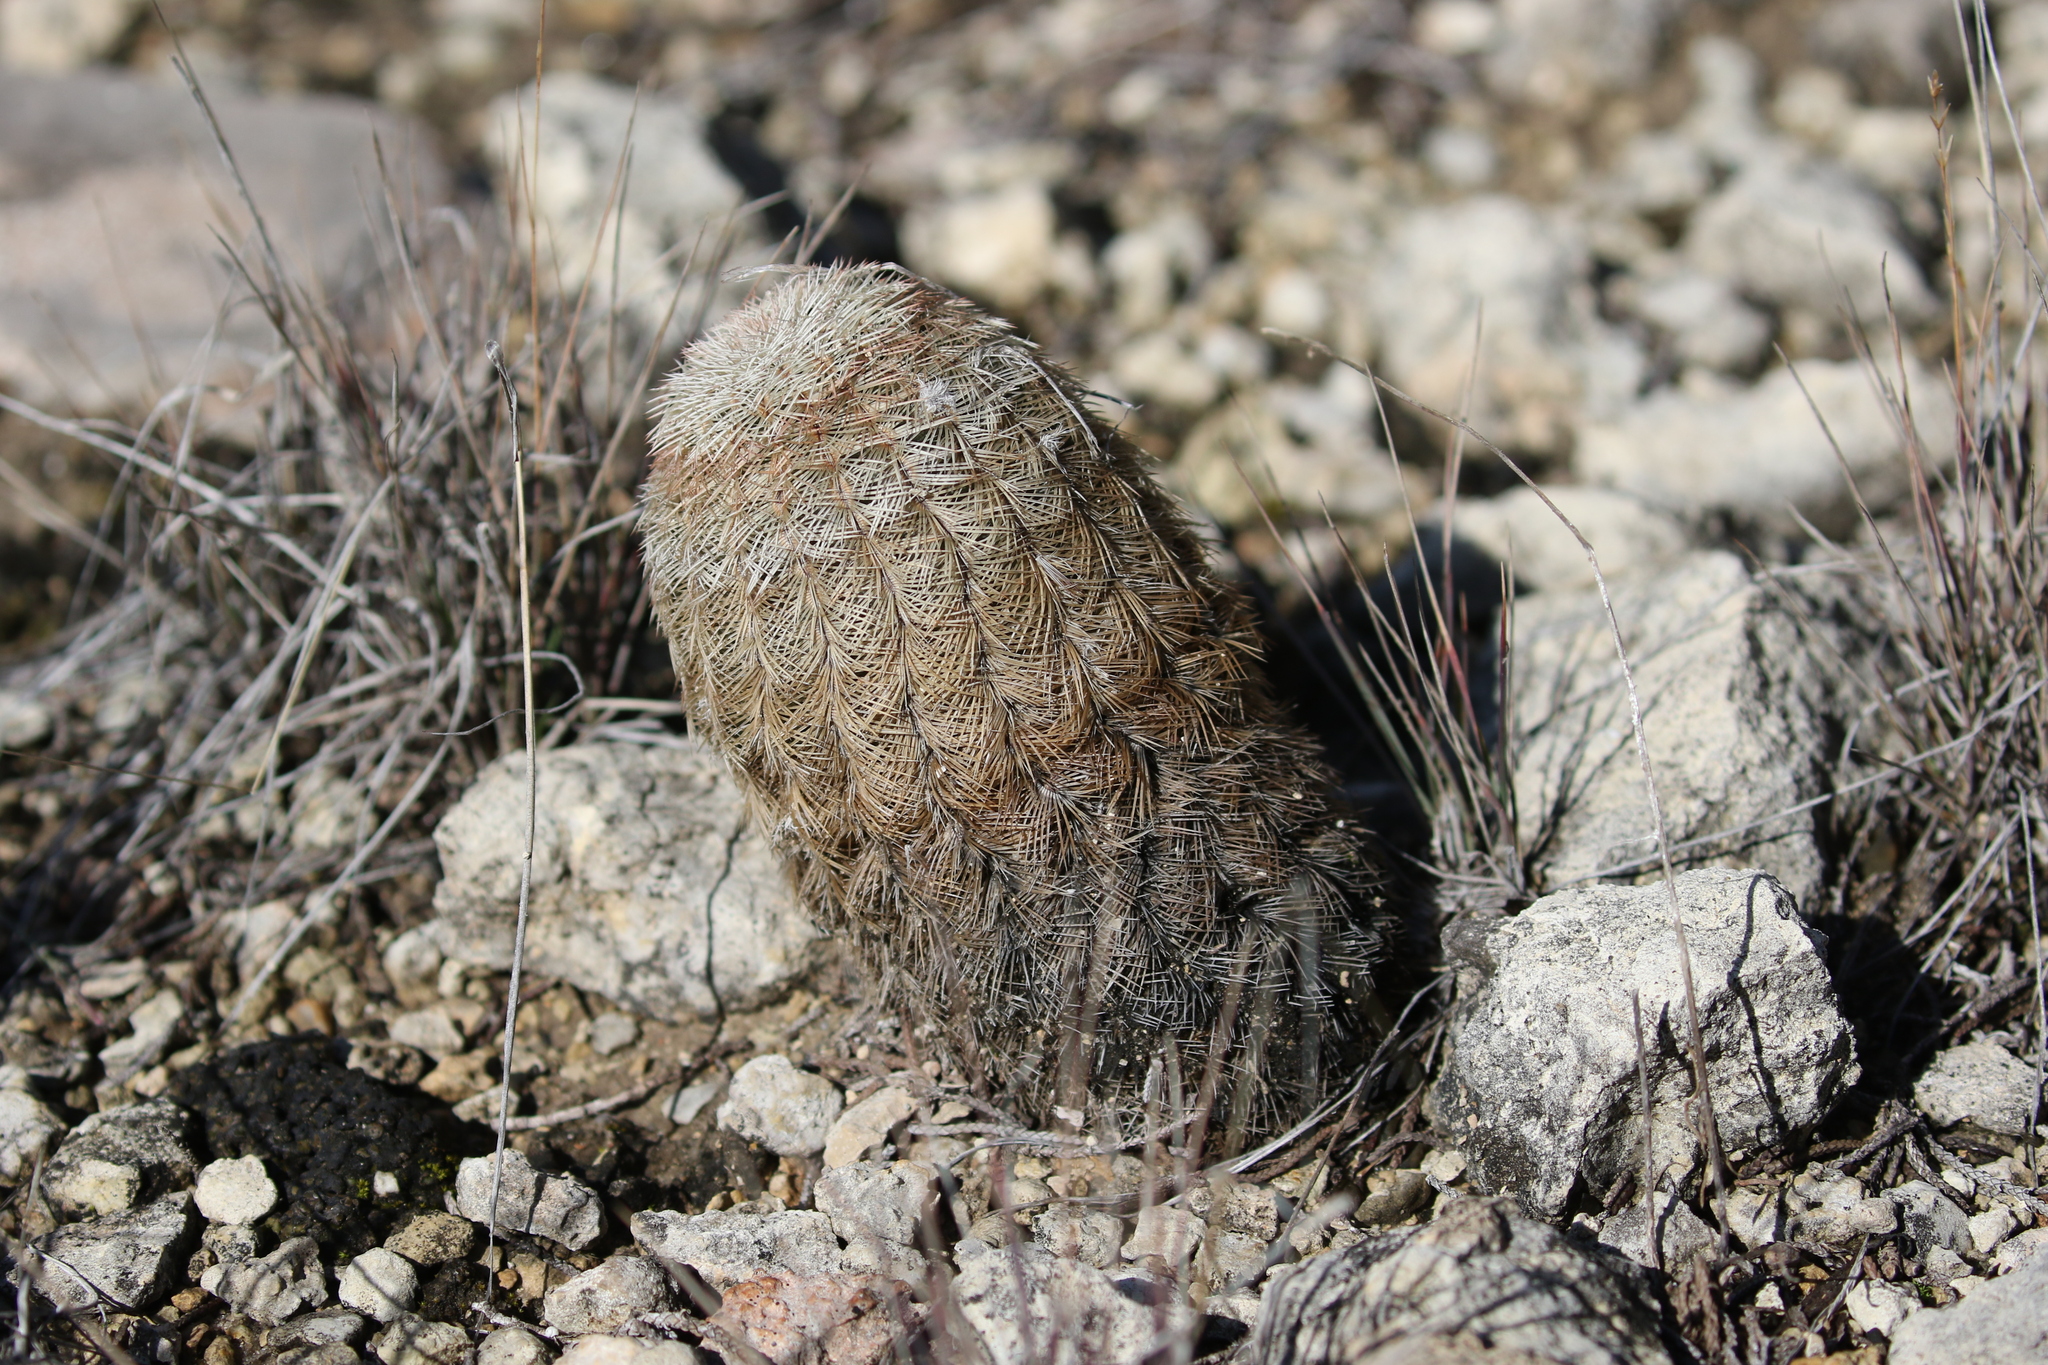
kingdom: Plantae
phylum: Tracheophyta
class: Magnoliopsida
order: Caryophyllales
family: Cactaceae
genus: Echinocereus
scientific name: Echinocereus reichenbachii
